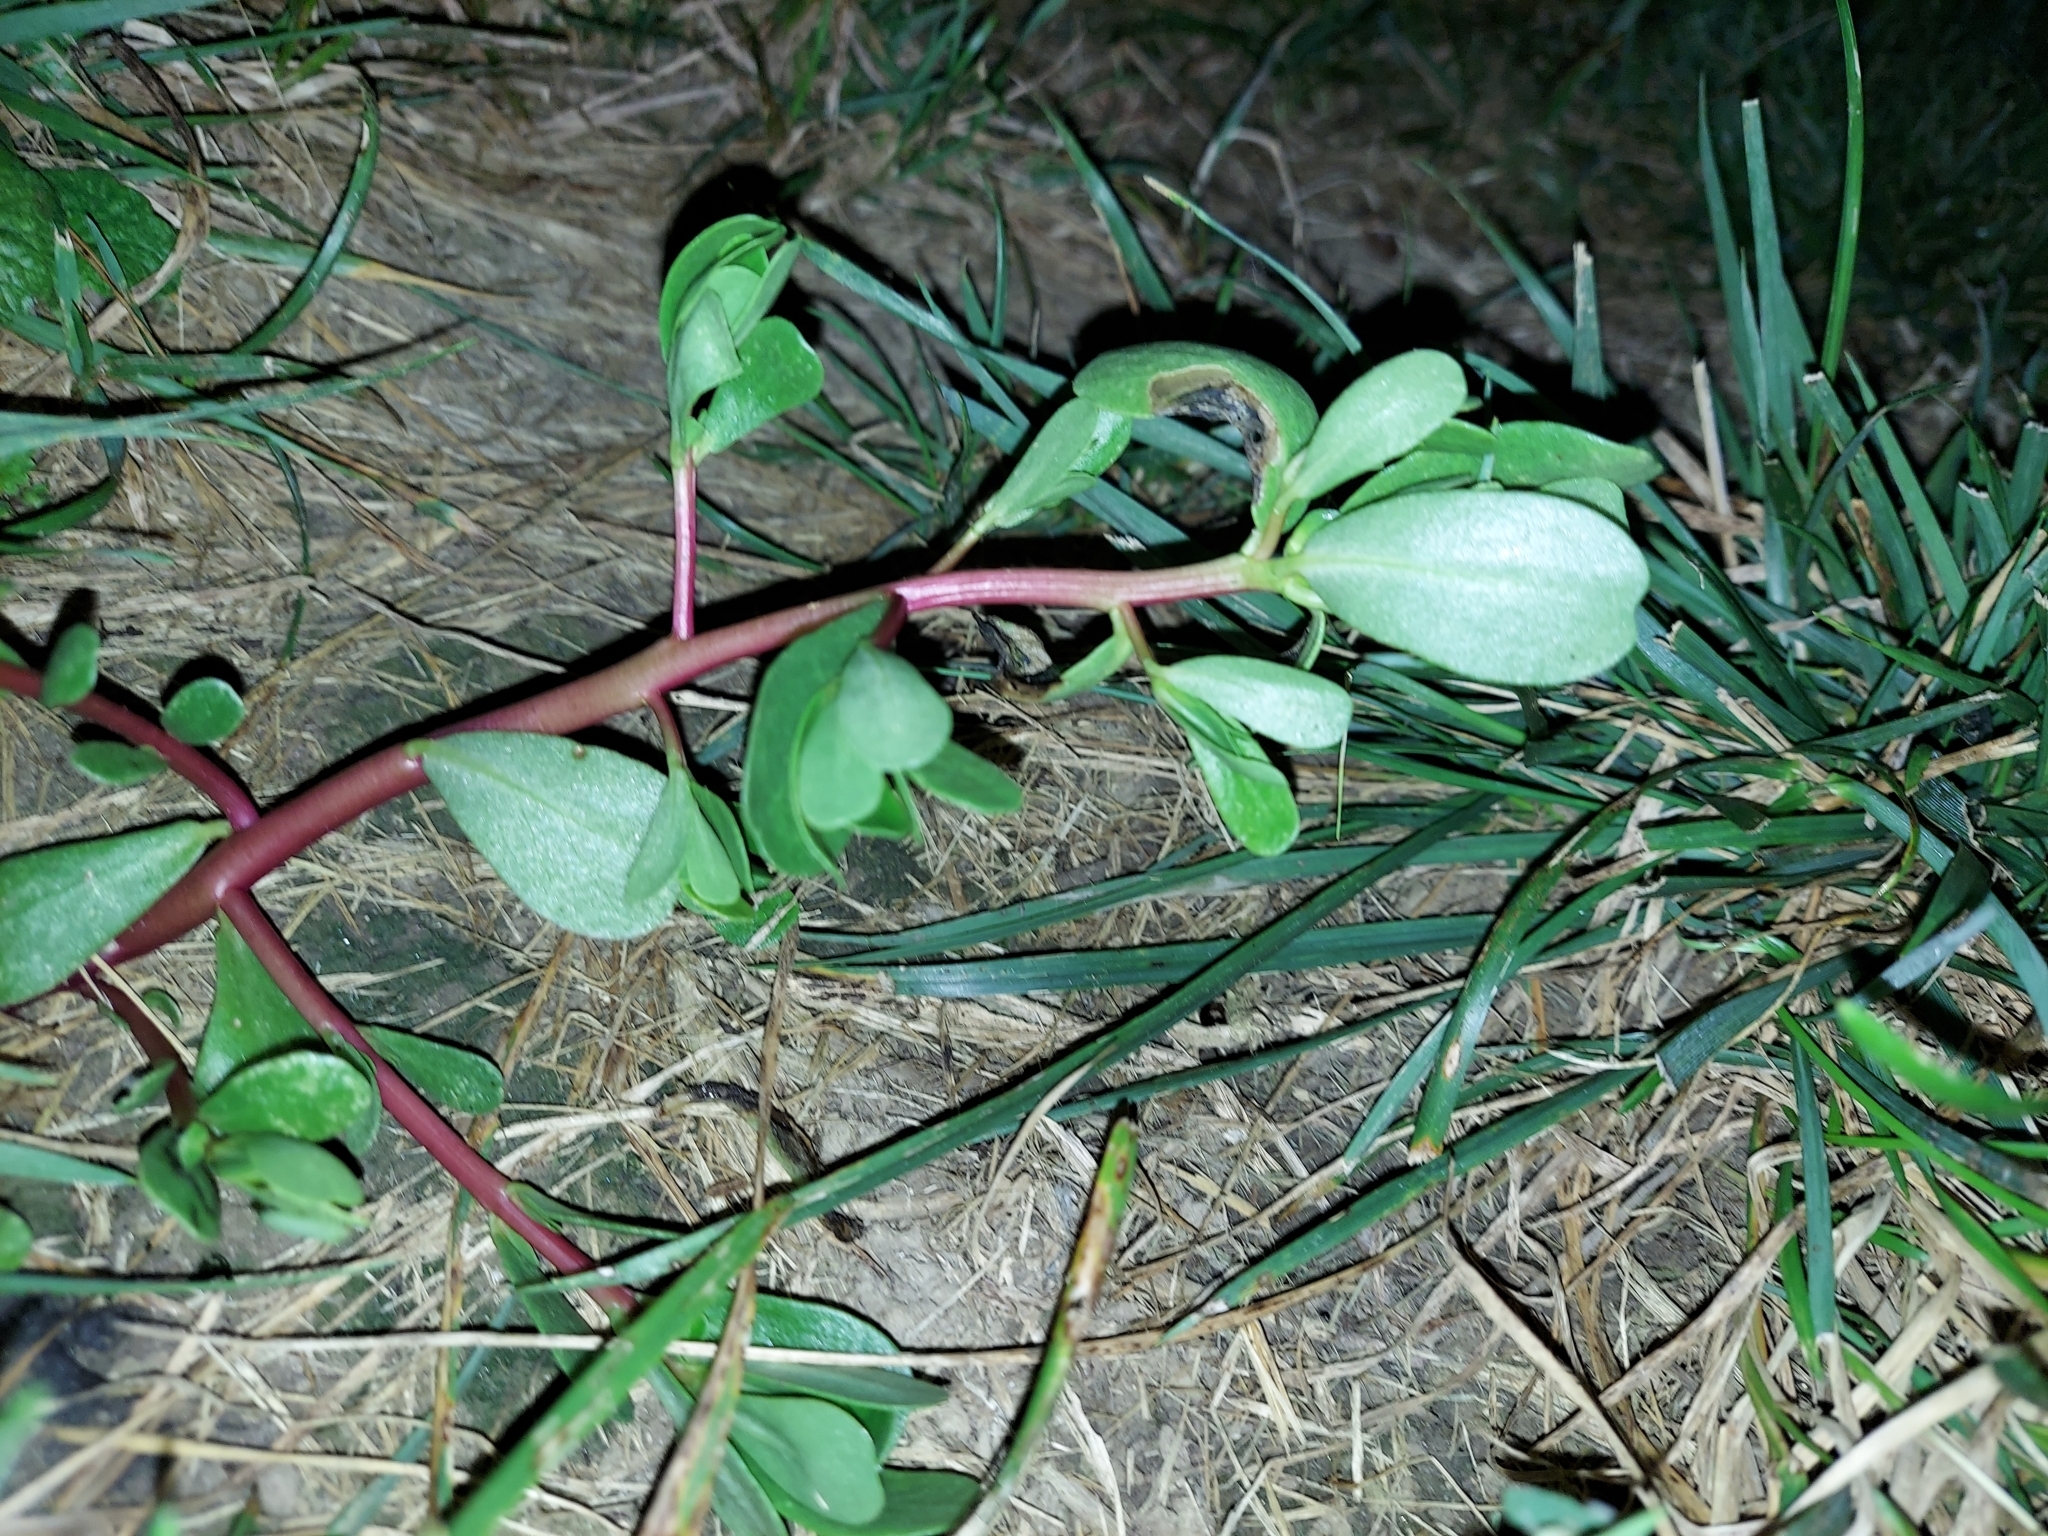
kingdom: Plantae
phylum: Tracheophyta
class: Magnoliopsida
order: Caryophyllales
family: Portulacaceae
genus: Portulaca
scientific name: Portulaca oleracea
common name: Common purslane
